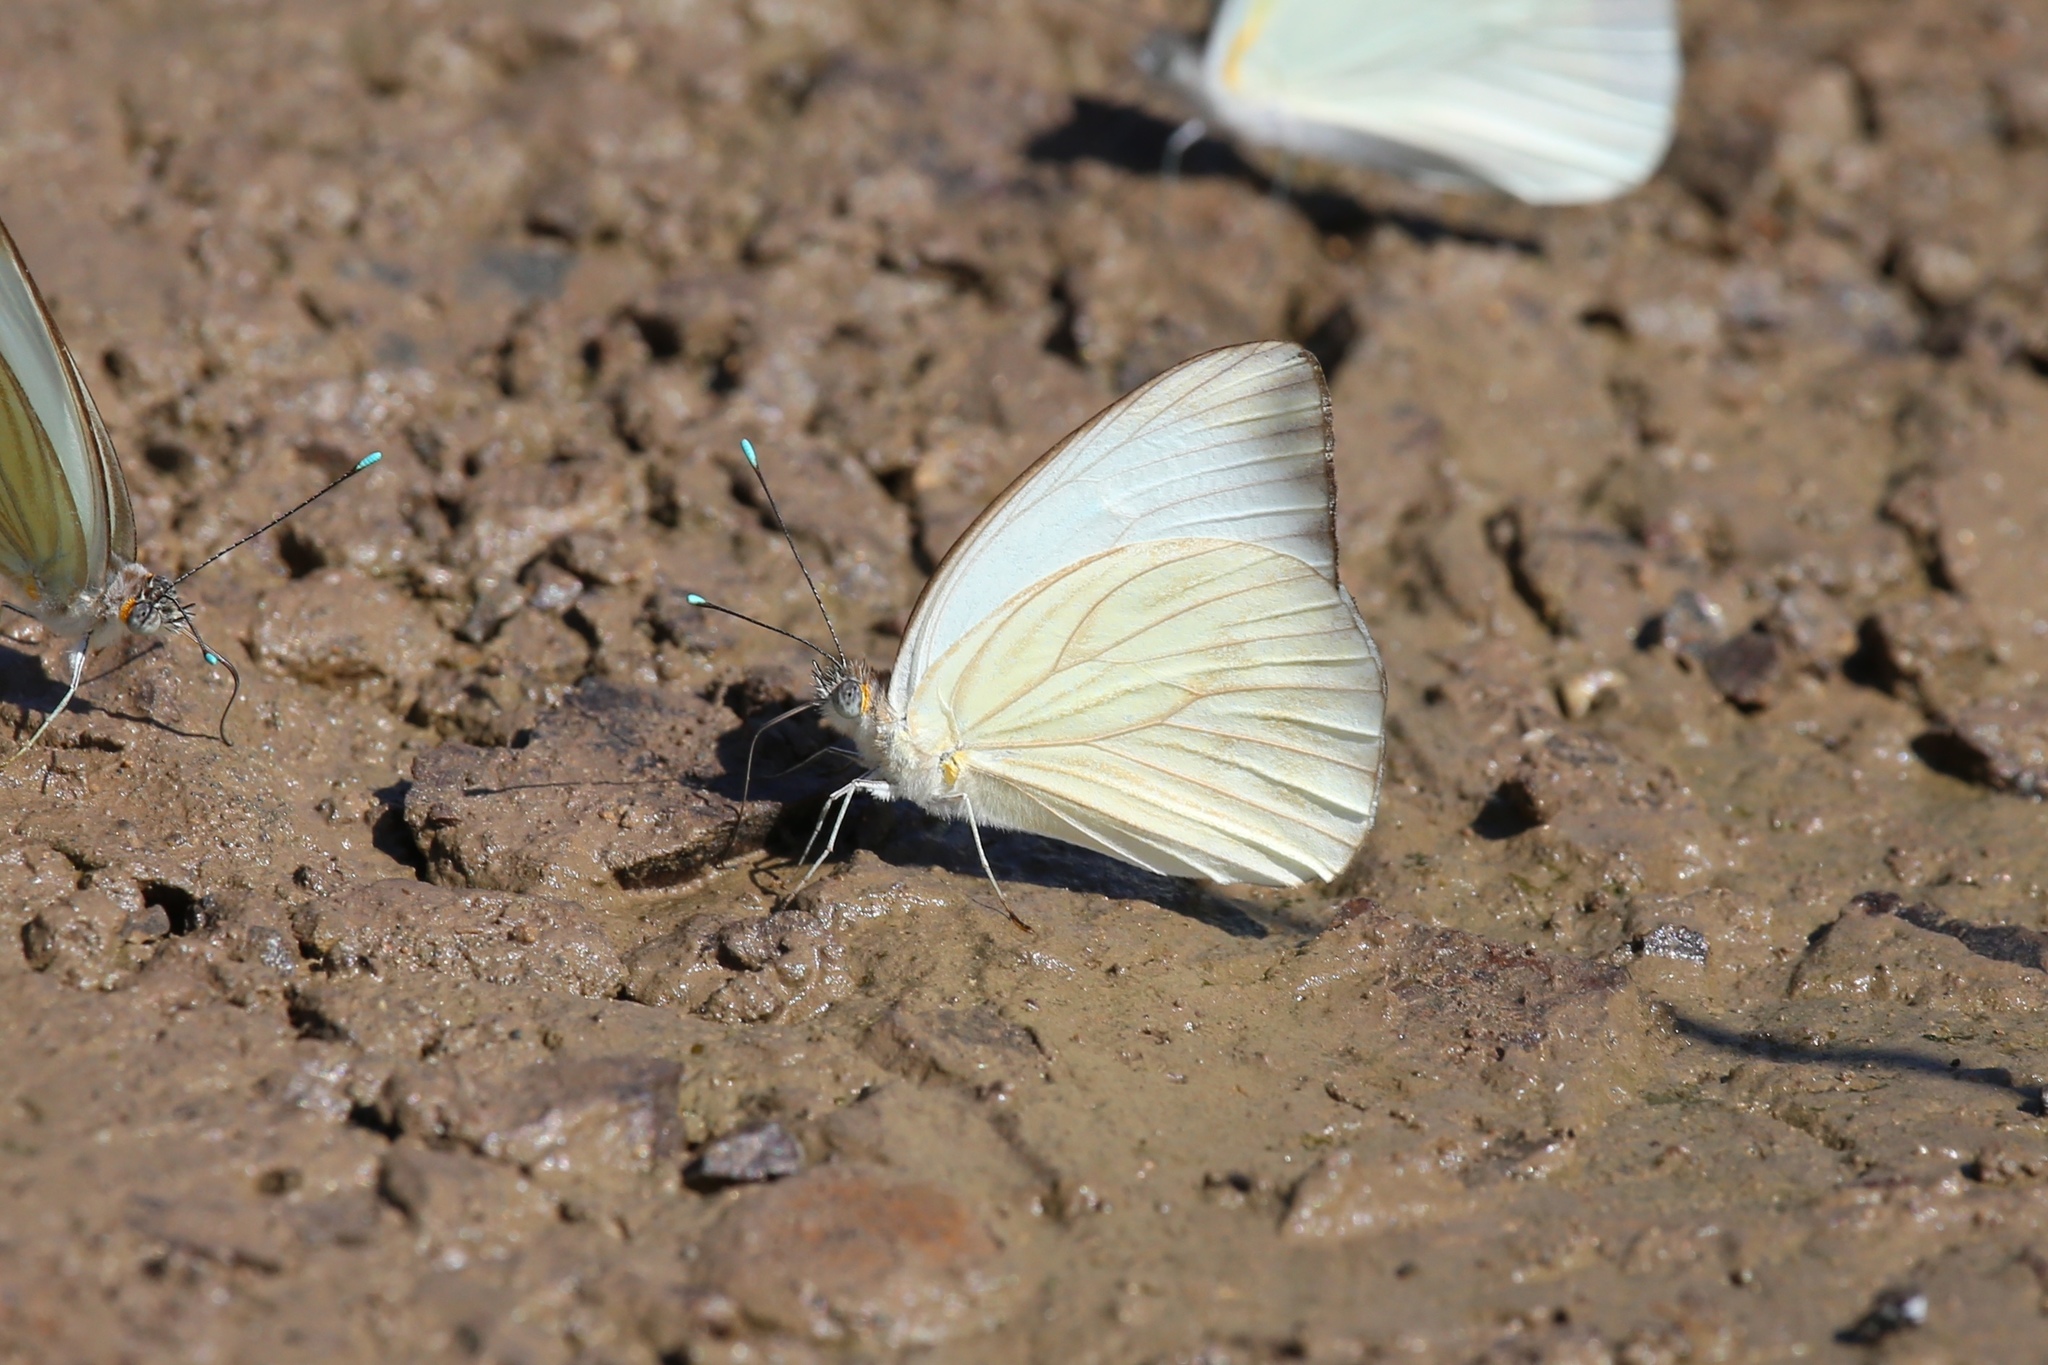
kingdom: Animalia
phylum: Arthropoda
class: Insecta
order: Lepidoptera
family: Pieridae
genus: Ascia
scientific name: Ascia monuste
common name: Great southern white
